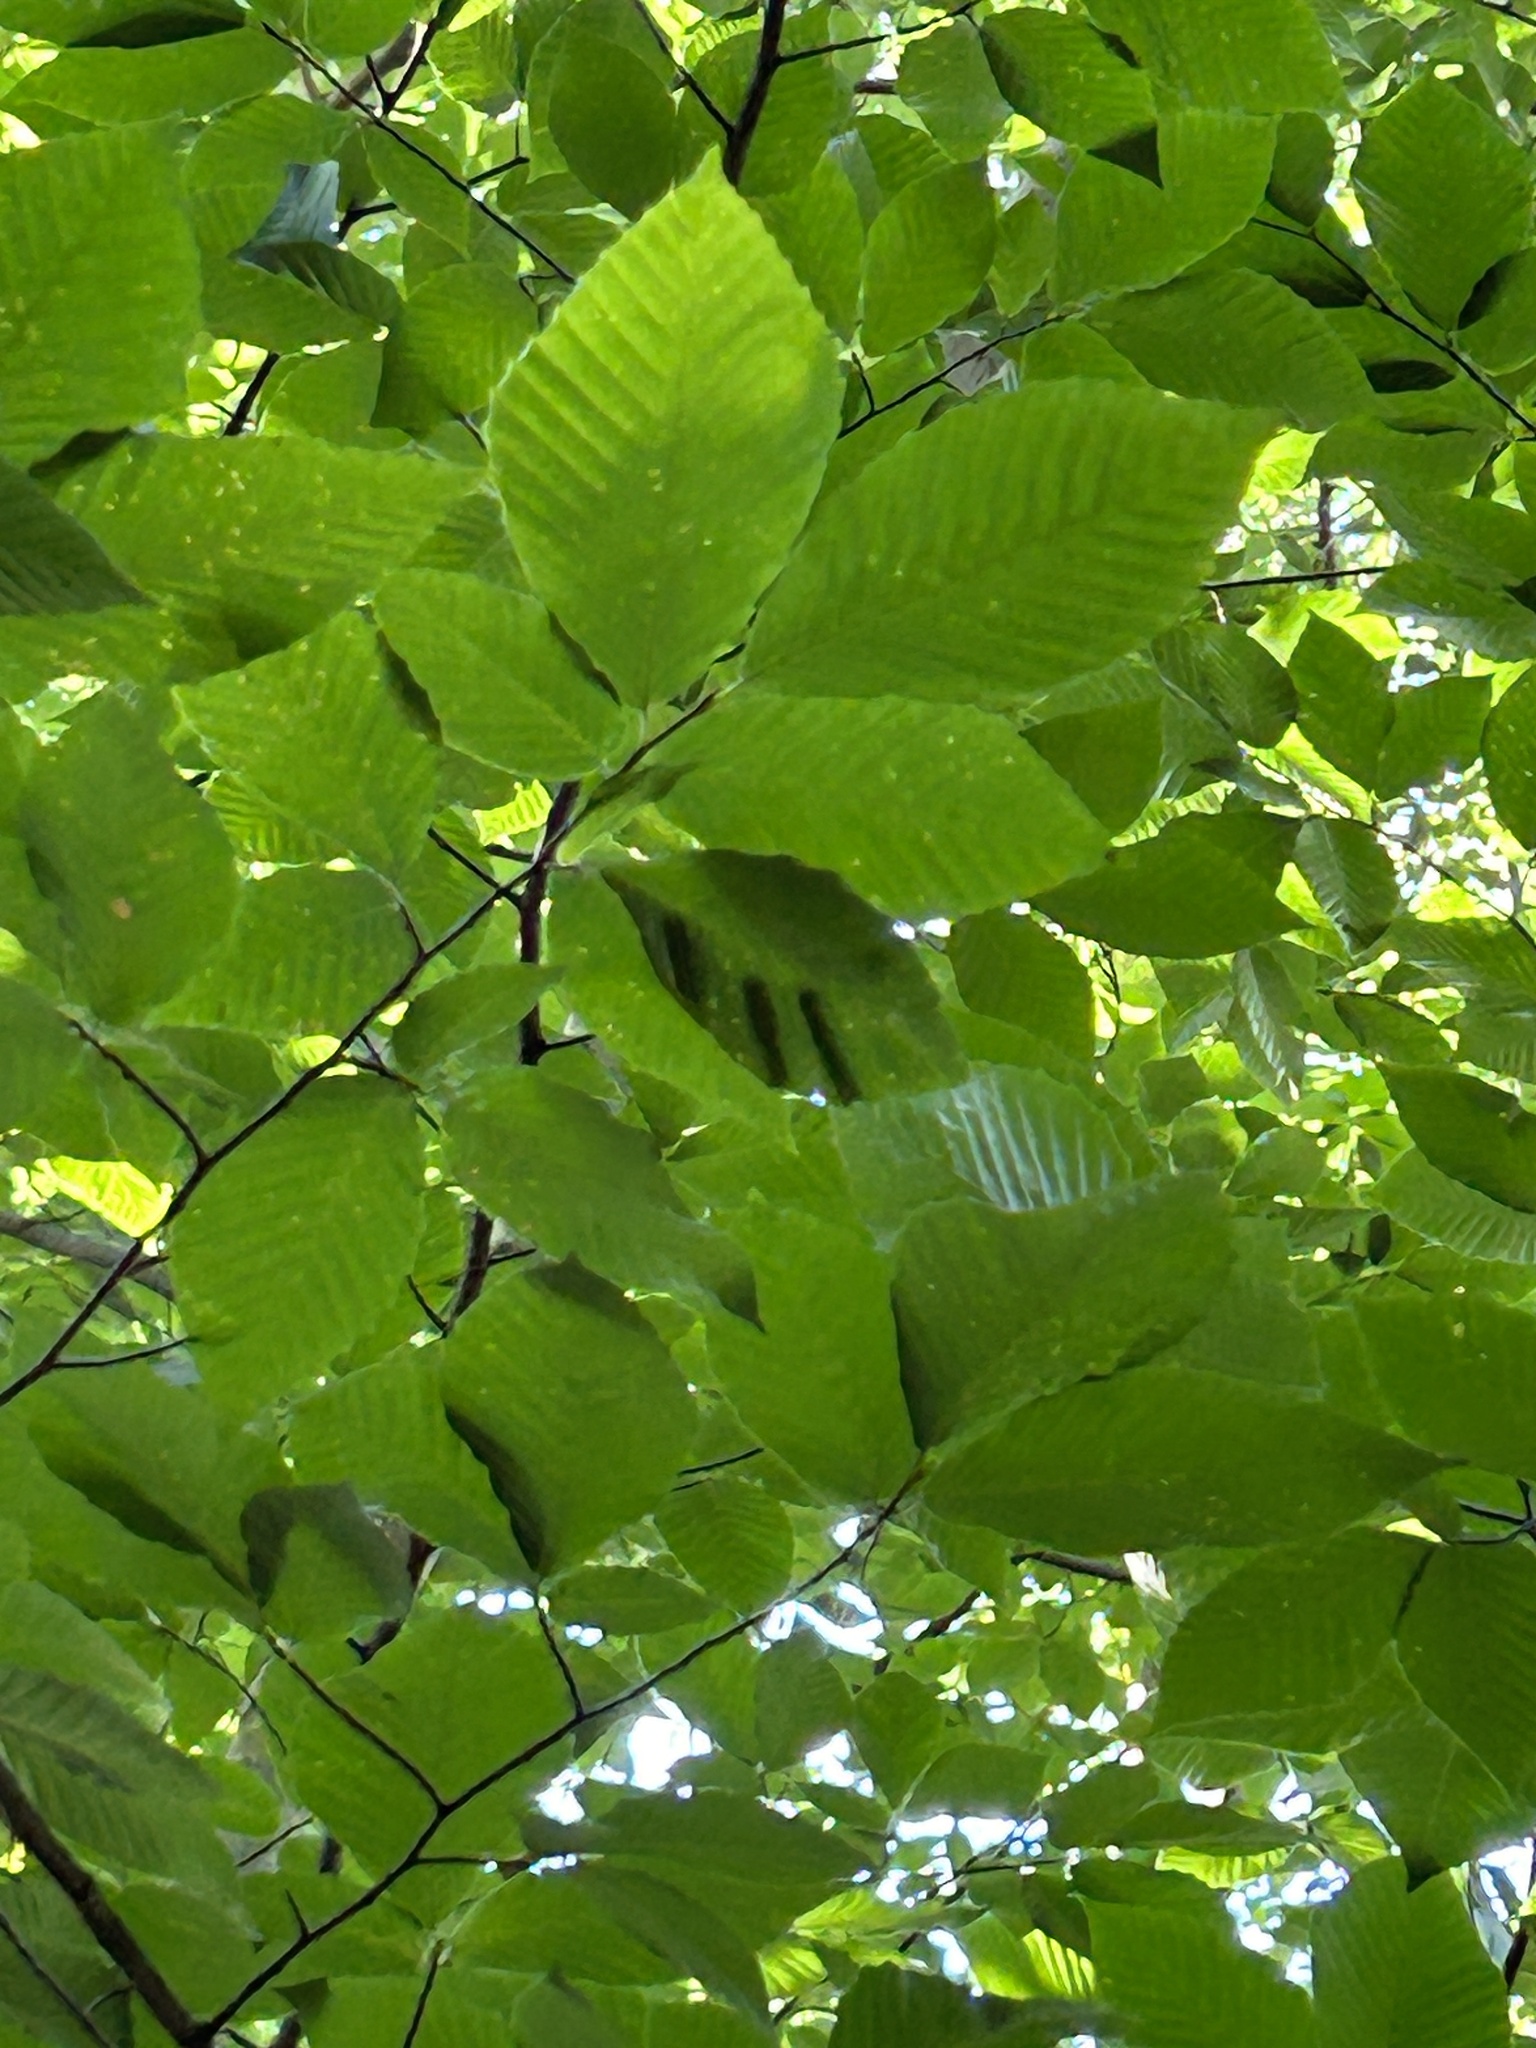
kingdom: Animalia
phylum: Nematoda
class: Chromadorea
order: Rhabditida
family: Anguinidae
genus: Litylenchus
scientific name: Litylenchus crenatae
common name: Beech leaf disease
